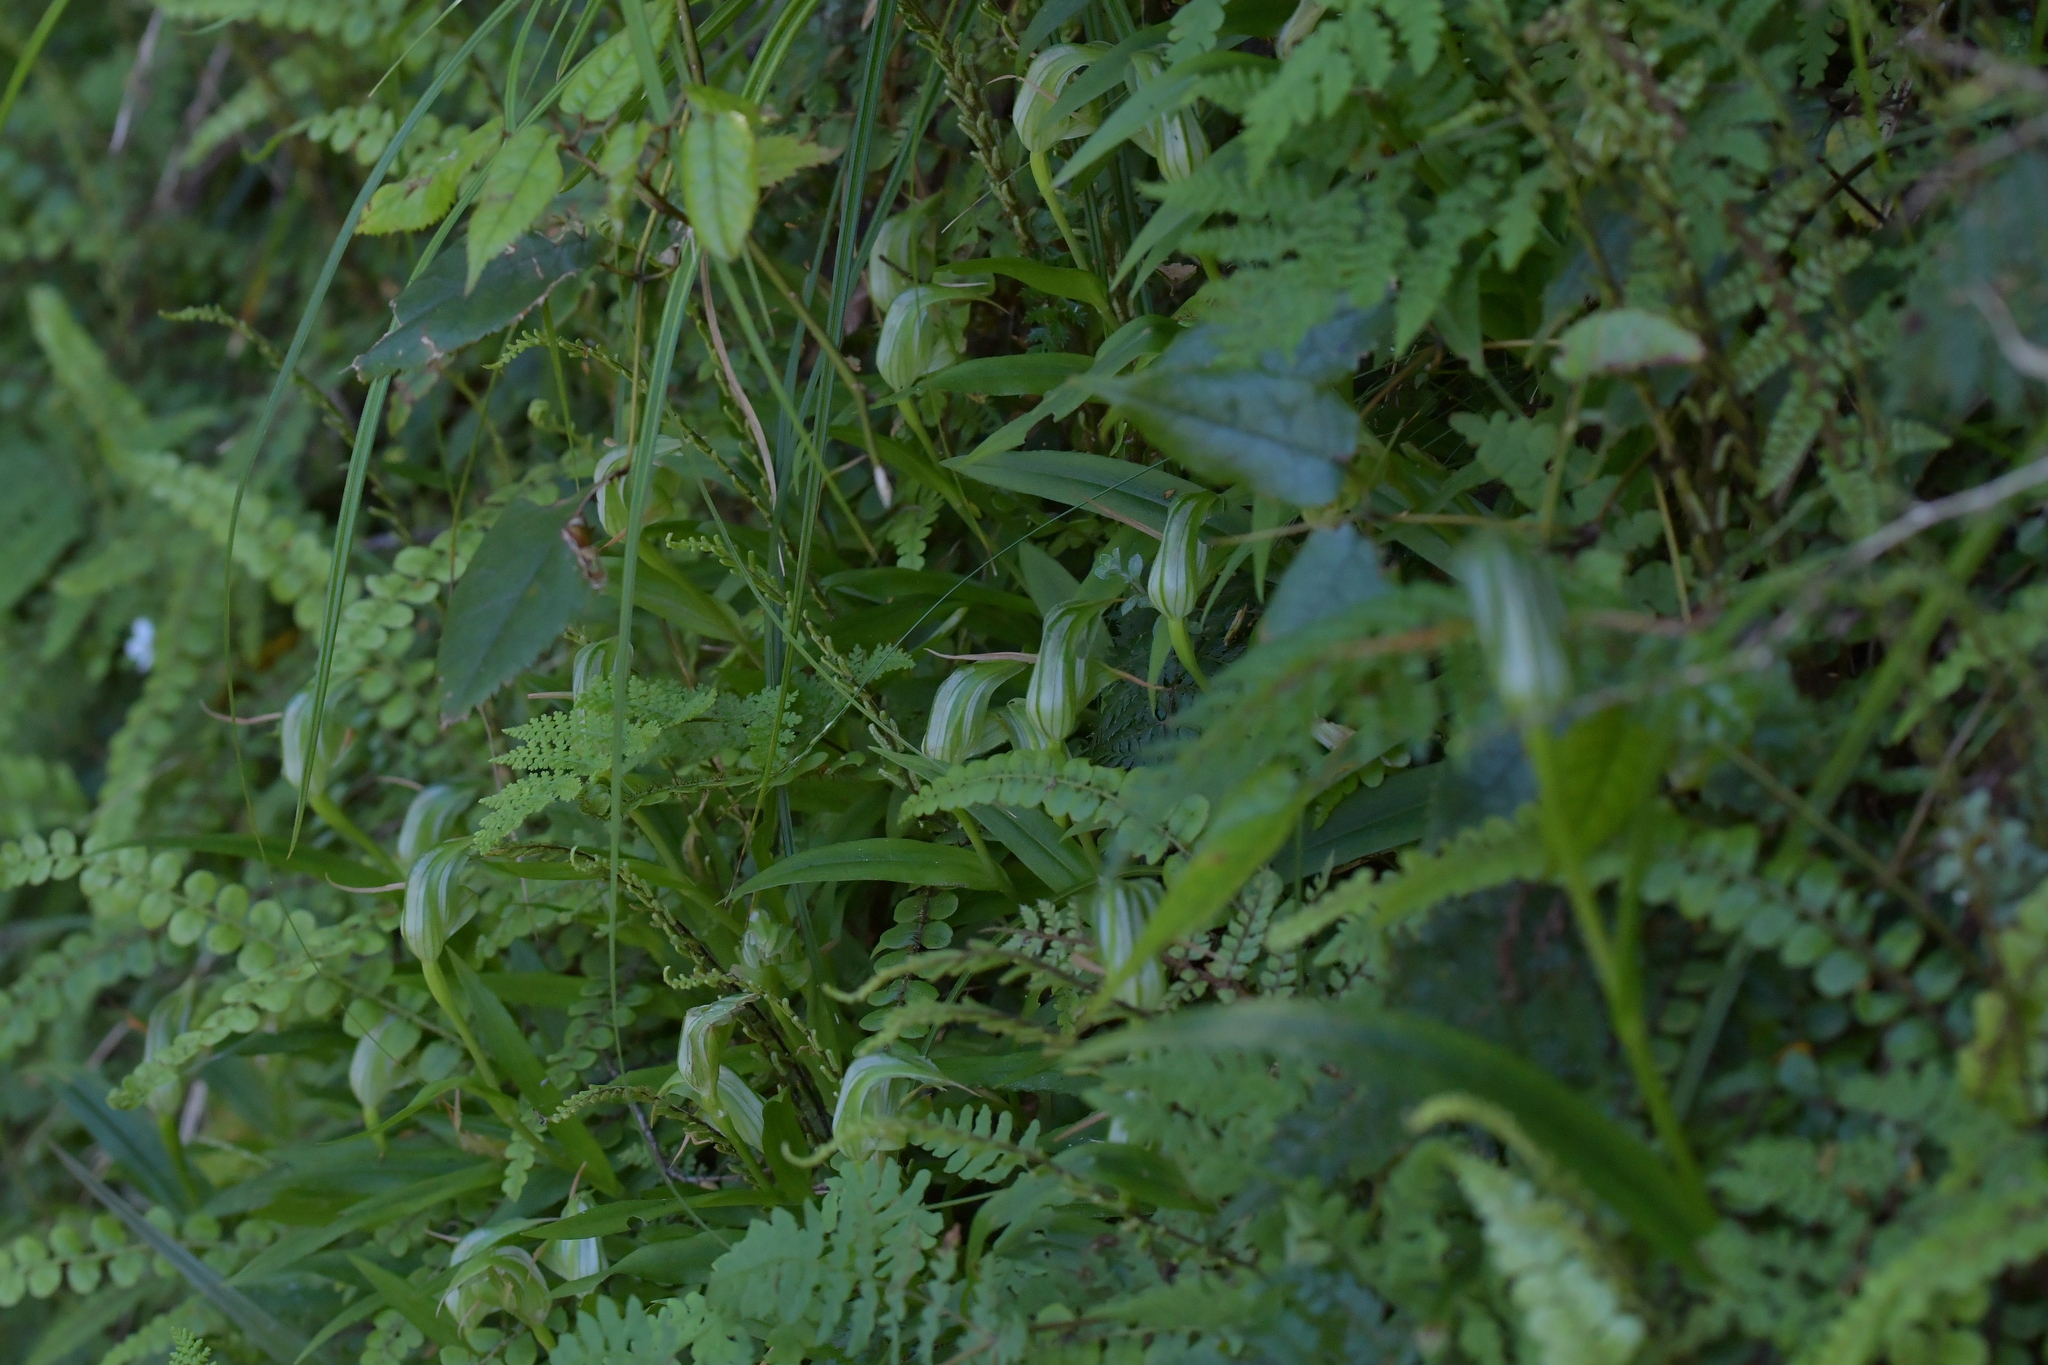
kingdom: Plantae
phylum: Tracheophyta
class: Liliopsida
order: Asparagales
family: Orchidaceae
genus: Pterostylis
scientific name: Pterostylis australis
